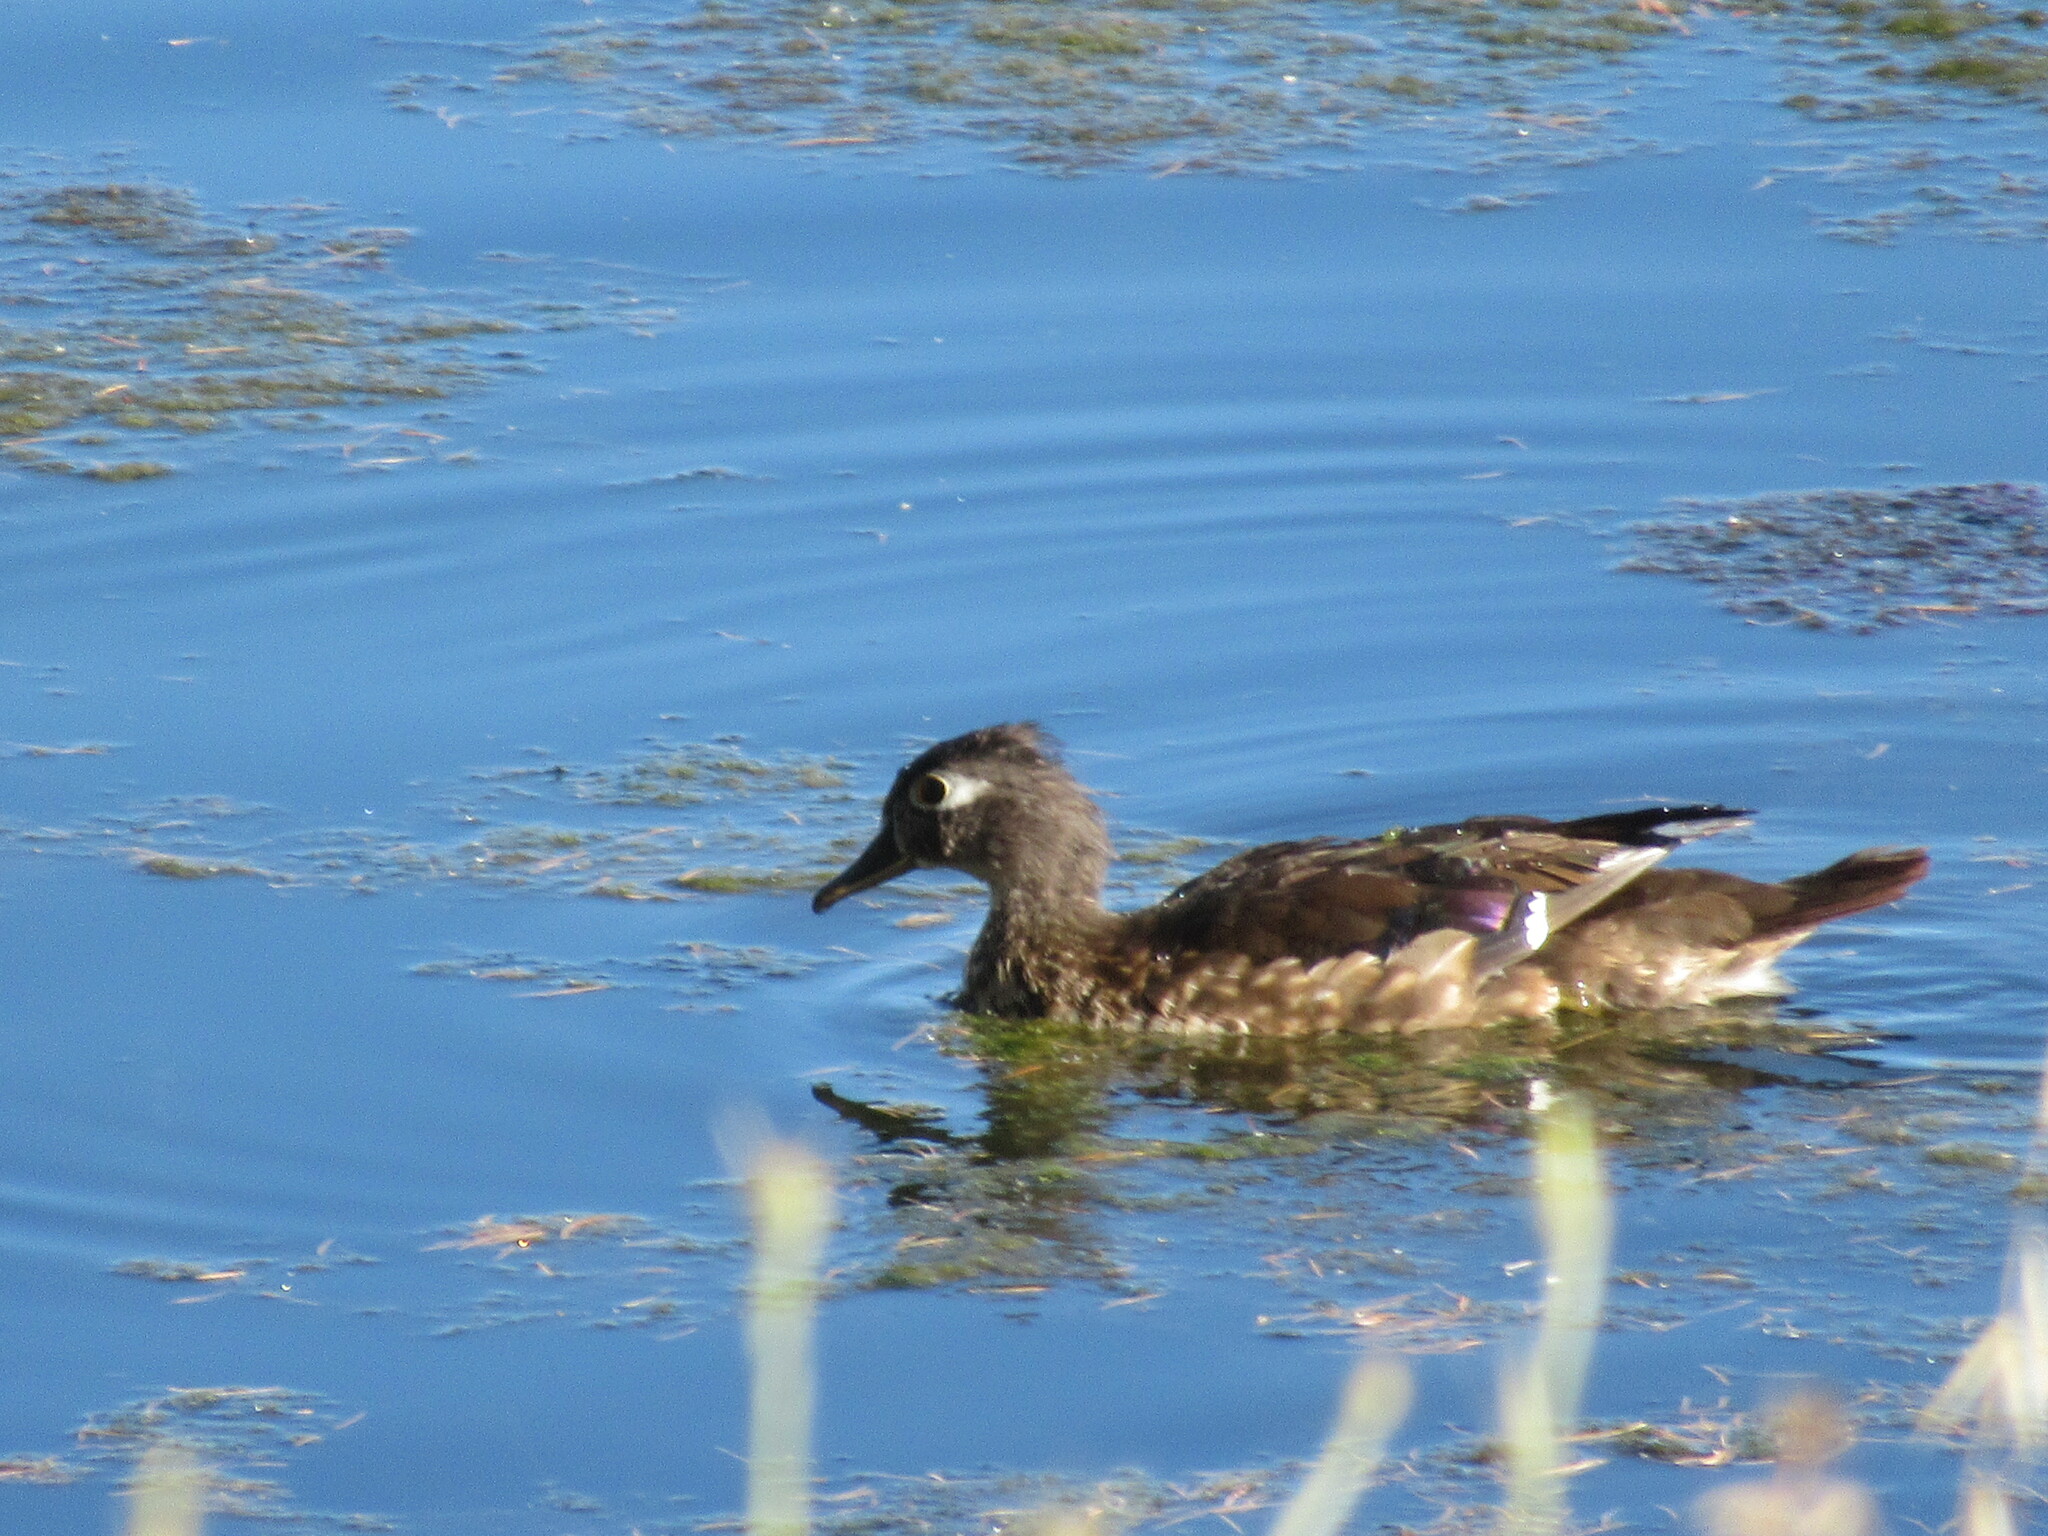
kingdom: Animalia
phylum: Chordata
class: Aves
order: Anseriformes
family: Anatidae
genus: Aix
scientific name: Aix sponsa
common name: Wood duck
